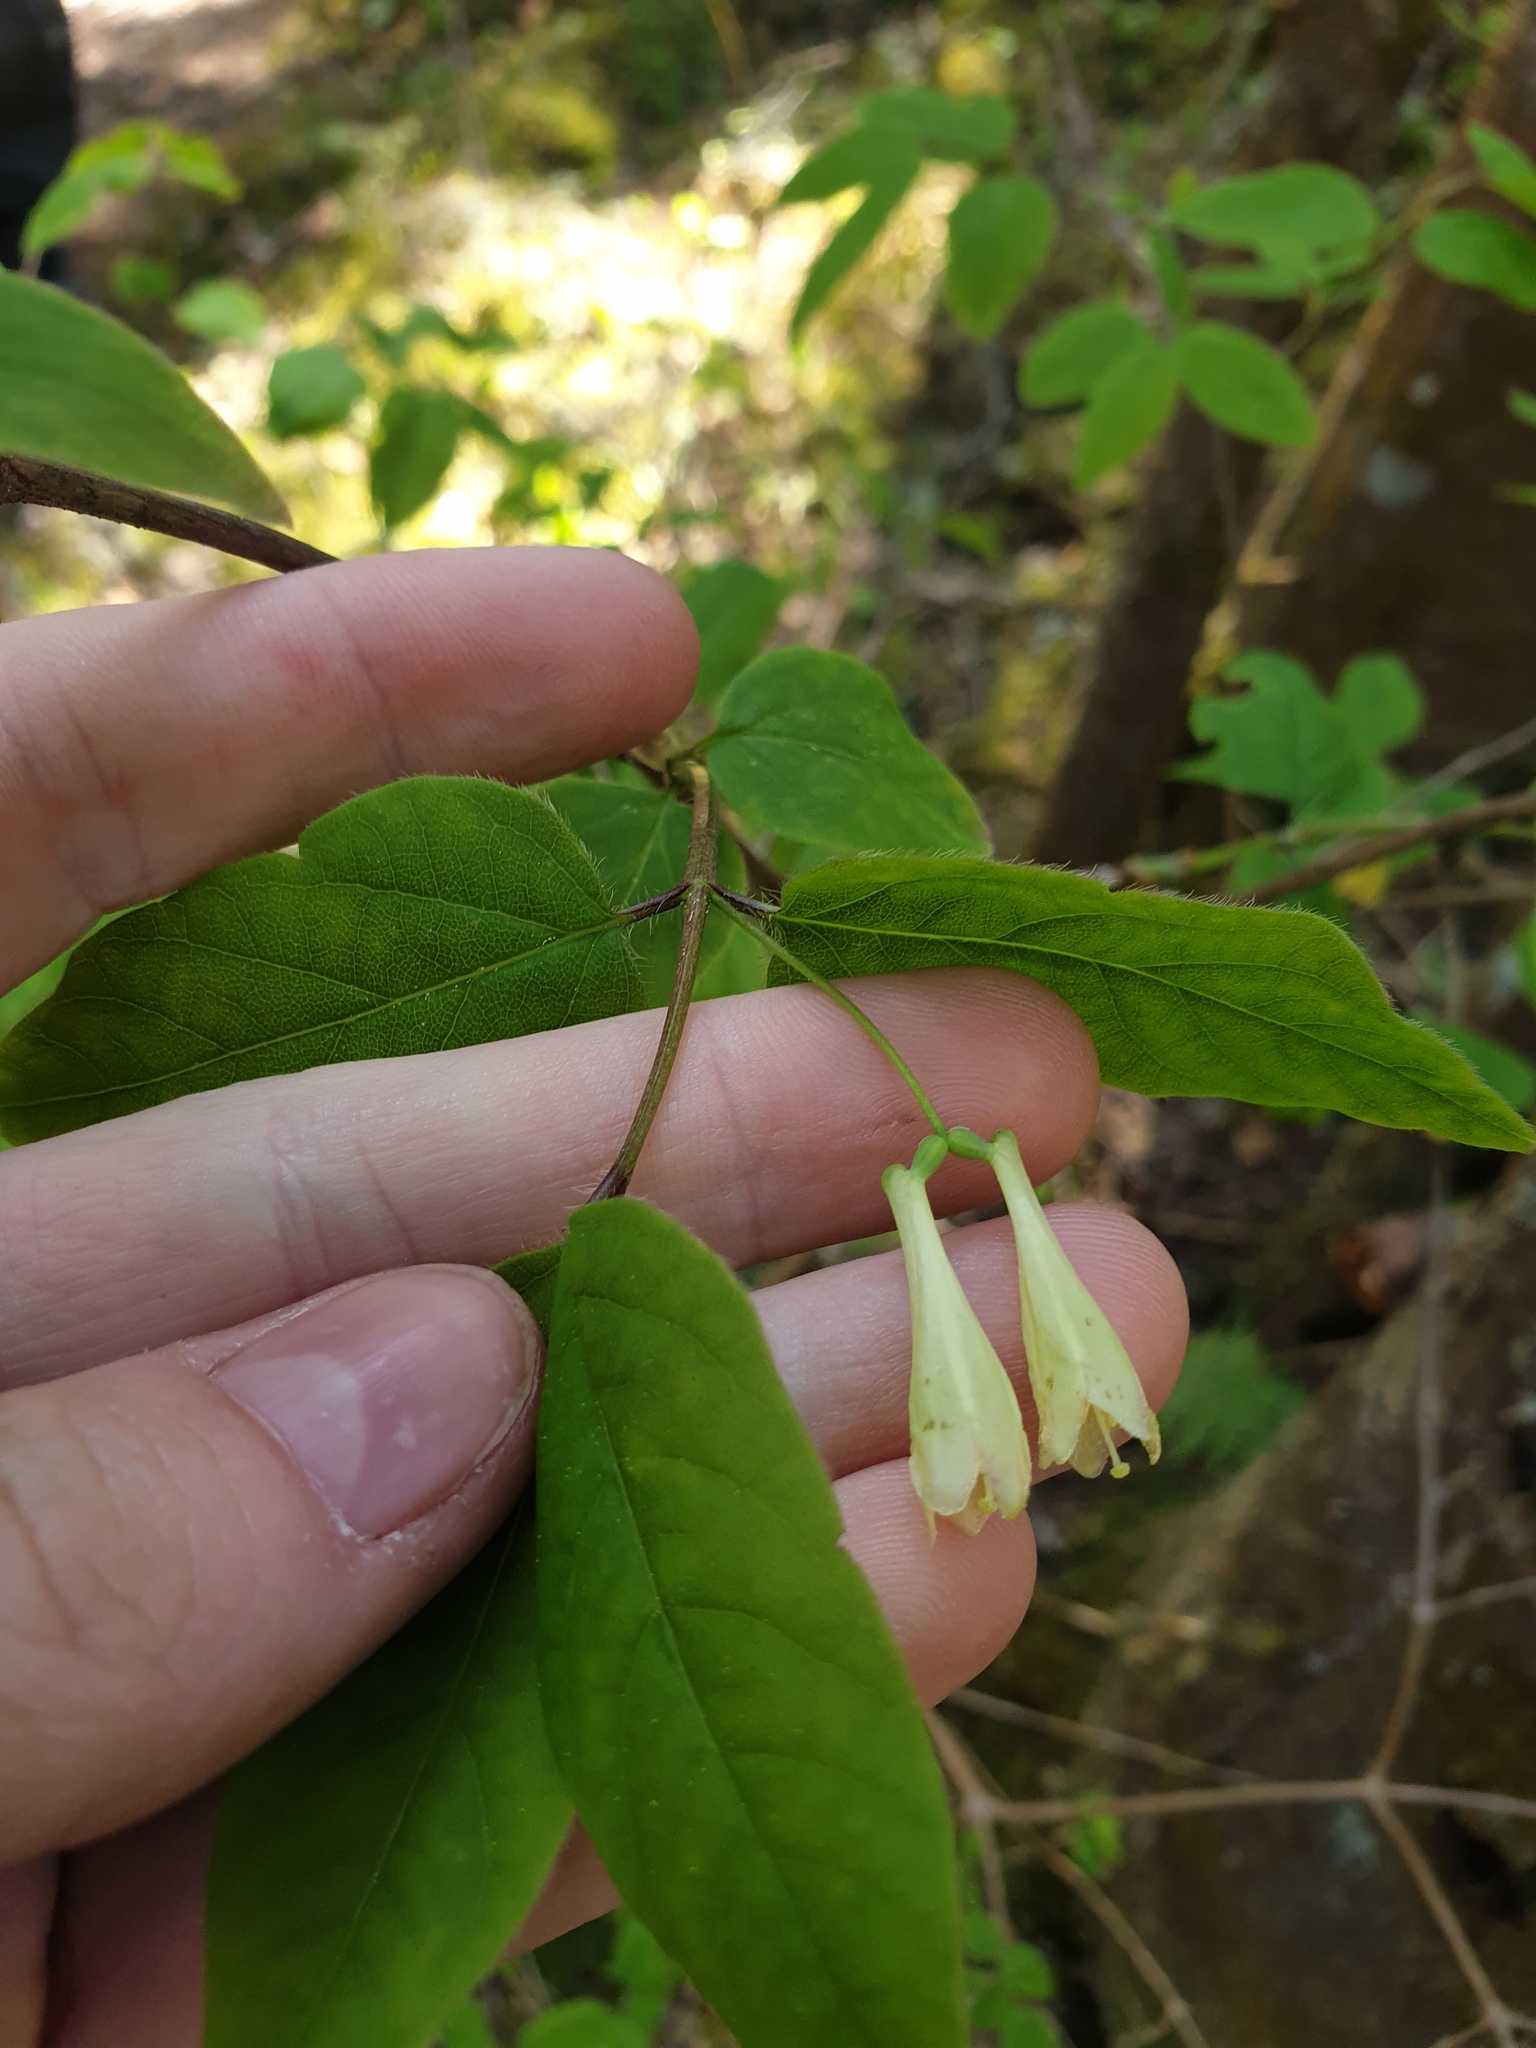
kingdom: Plantae
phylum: Tracheophyta
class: Magnoliopsida
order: Dipsacales
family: Caprifoliaceae
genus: Lonicera
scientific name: Lonicera canadensis
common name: American fly-honeysuckle
